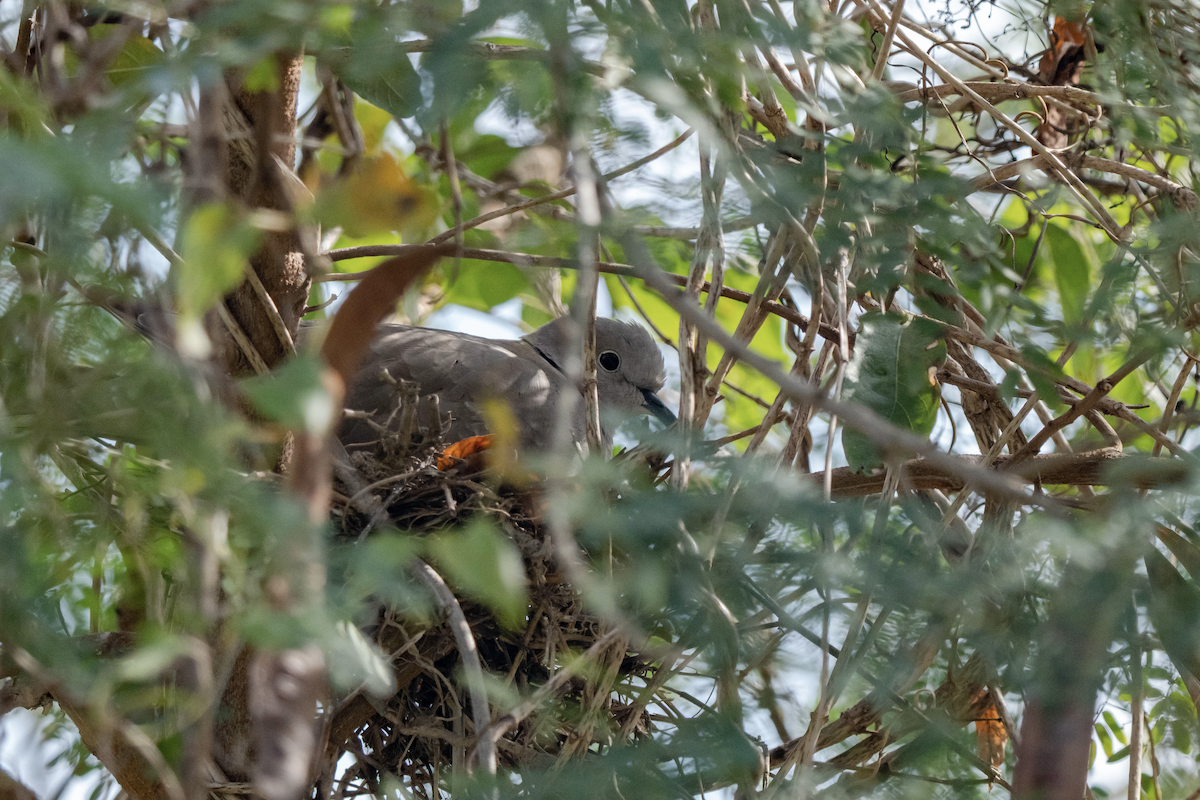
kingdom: Animalia
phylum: Chordata
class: Aves
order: Columbiformes
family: Columbidae
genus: Streptopelia
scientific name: Streptopelia decaocto
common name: Eurasian collared dove
